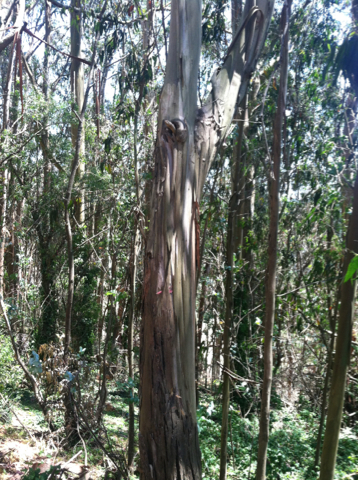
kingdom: Plantae
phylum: Tracheophyta
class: Magnoliopsida
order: Myrtales
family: Myrtaceae
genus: Eucalyptus
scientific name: Eucalyptus globulus
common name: Southern blue-gum
